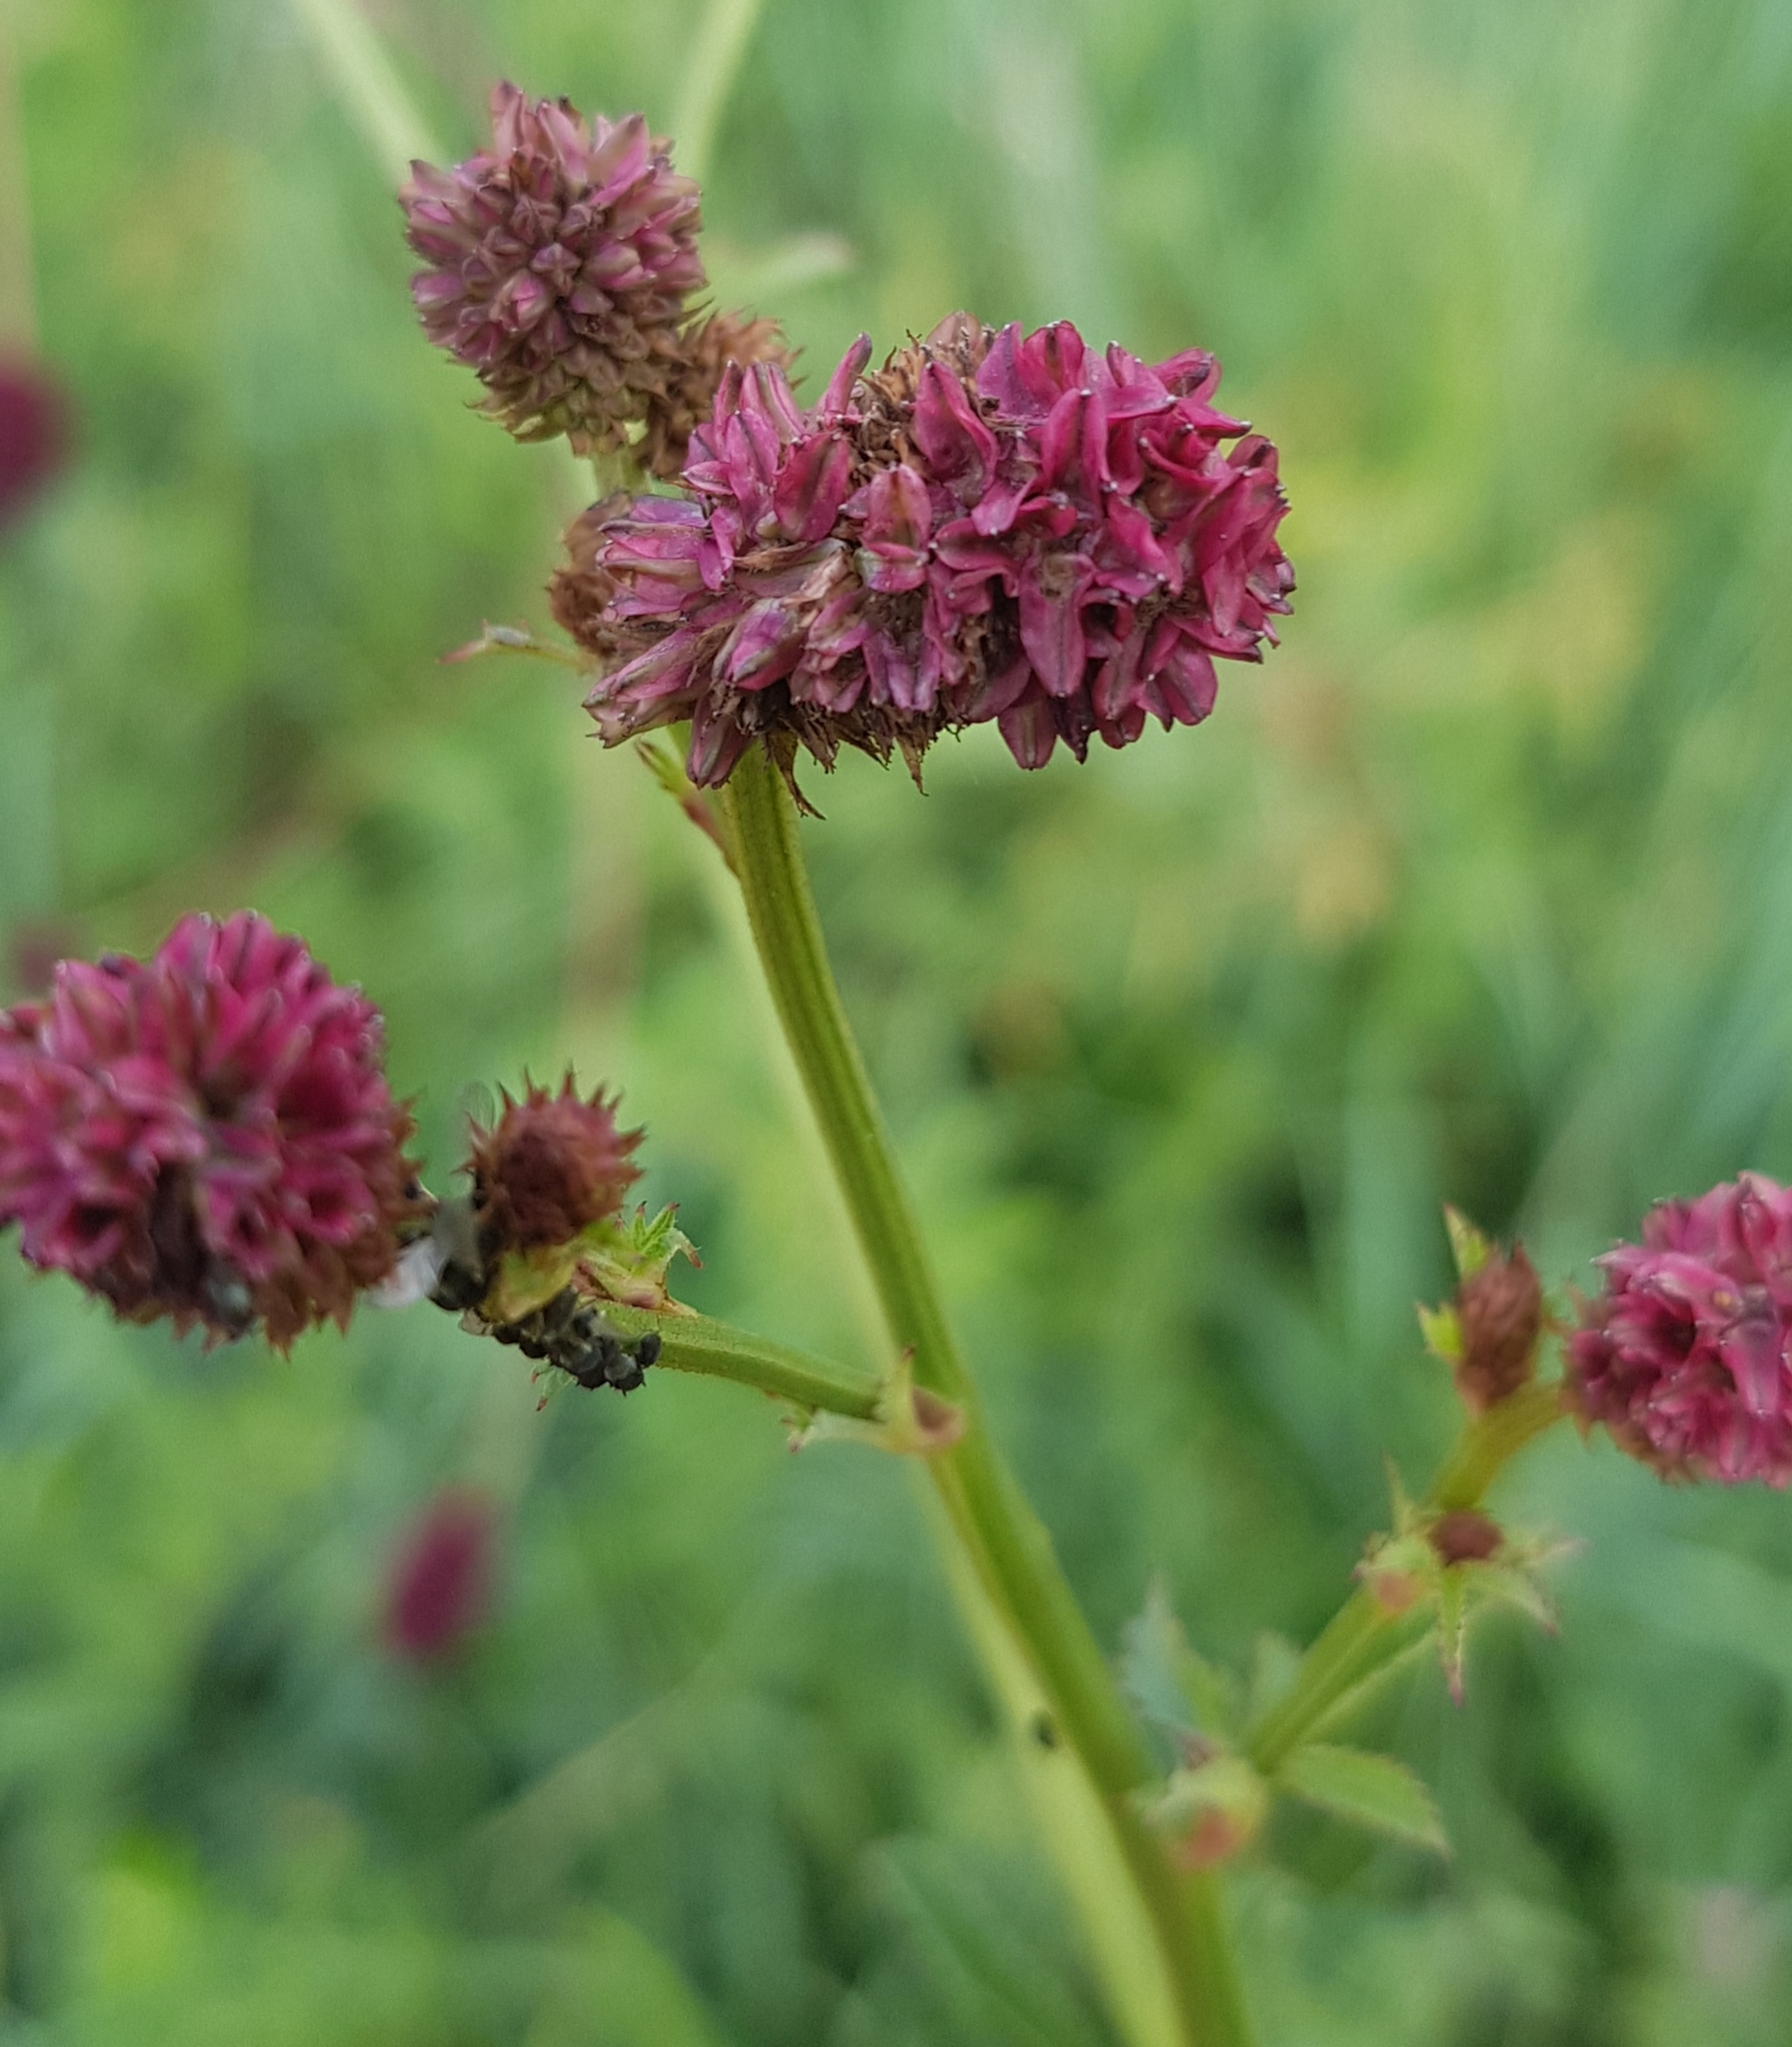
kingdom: Plantae
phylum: Tracheophyta
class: Magnoliopsida
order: Rosales
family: Rosaceae
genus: Sanguisorba
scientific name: Sanguisorba officinalis
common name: Great burnet
